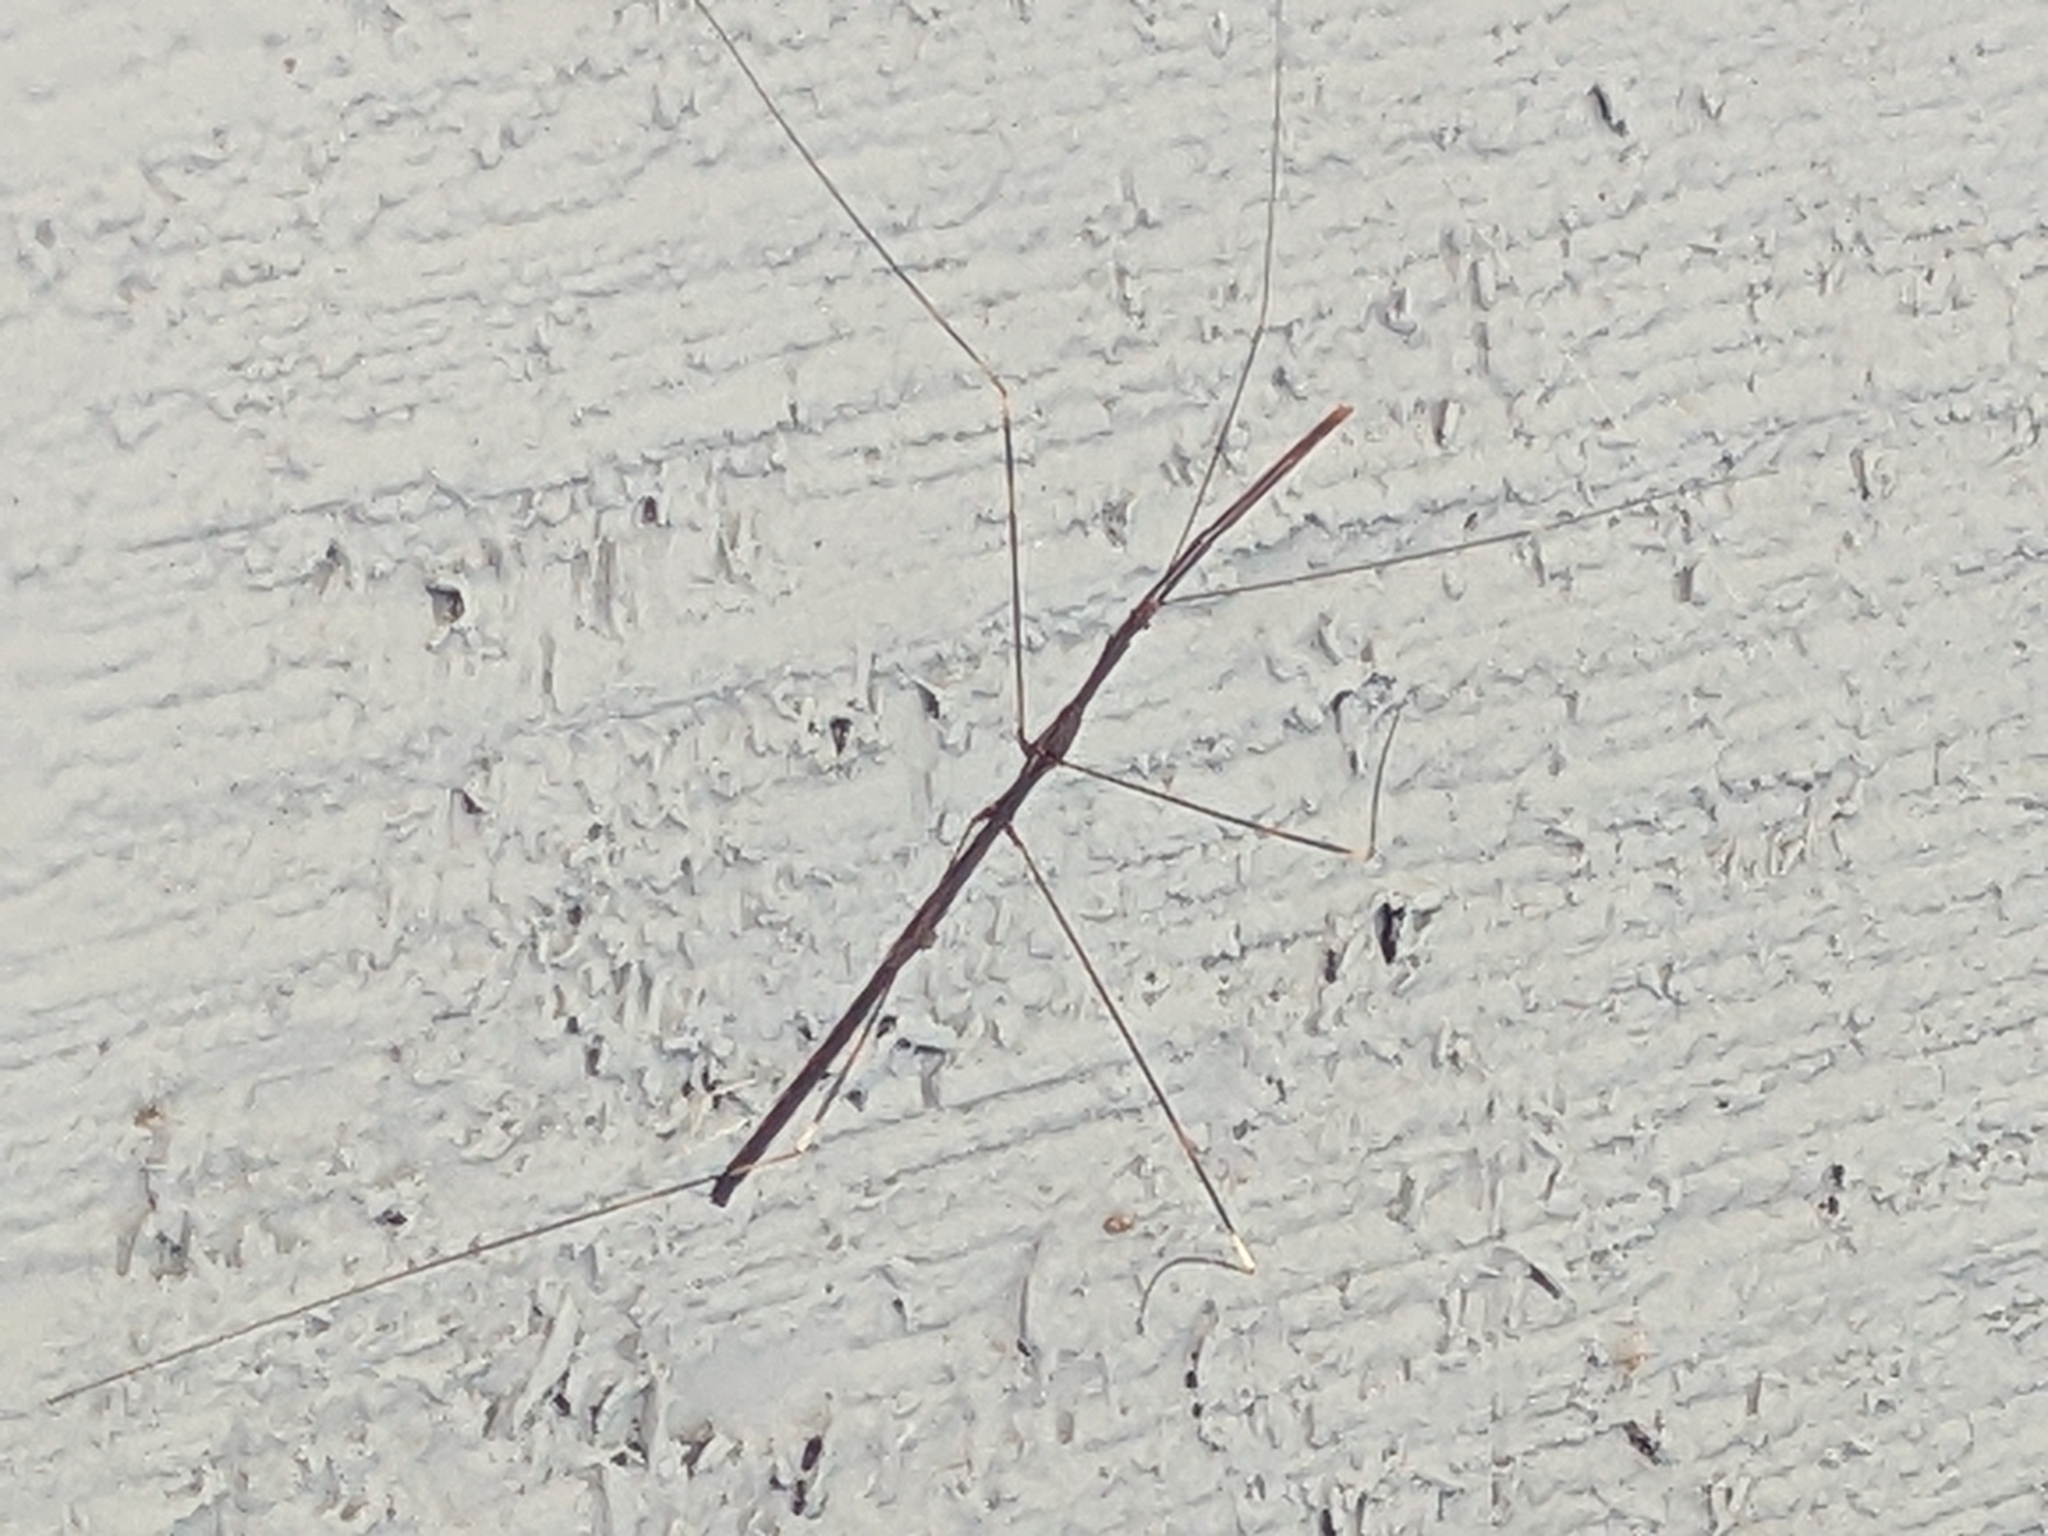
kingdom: Animalia
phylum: Arthropoda
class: Insecta
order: Hemiptera
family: Reduviidae
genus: Emesaya
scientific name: Emesaya brevipennis
